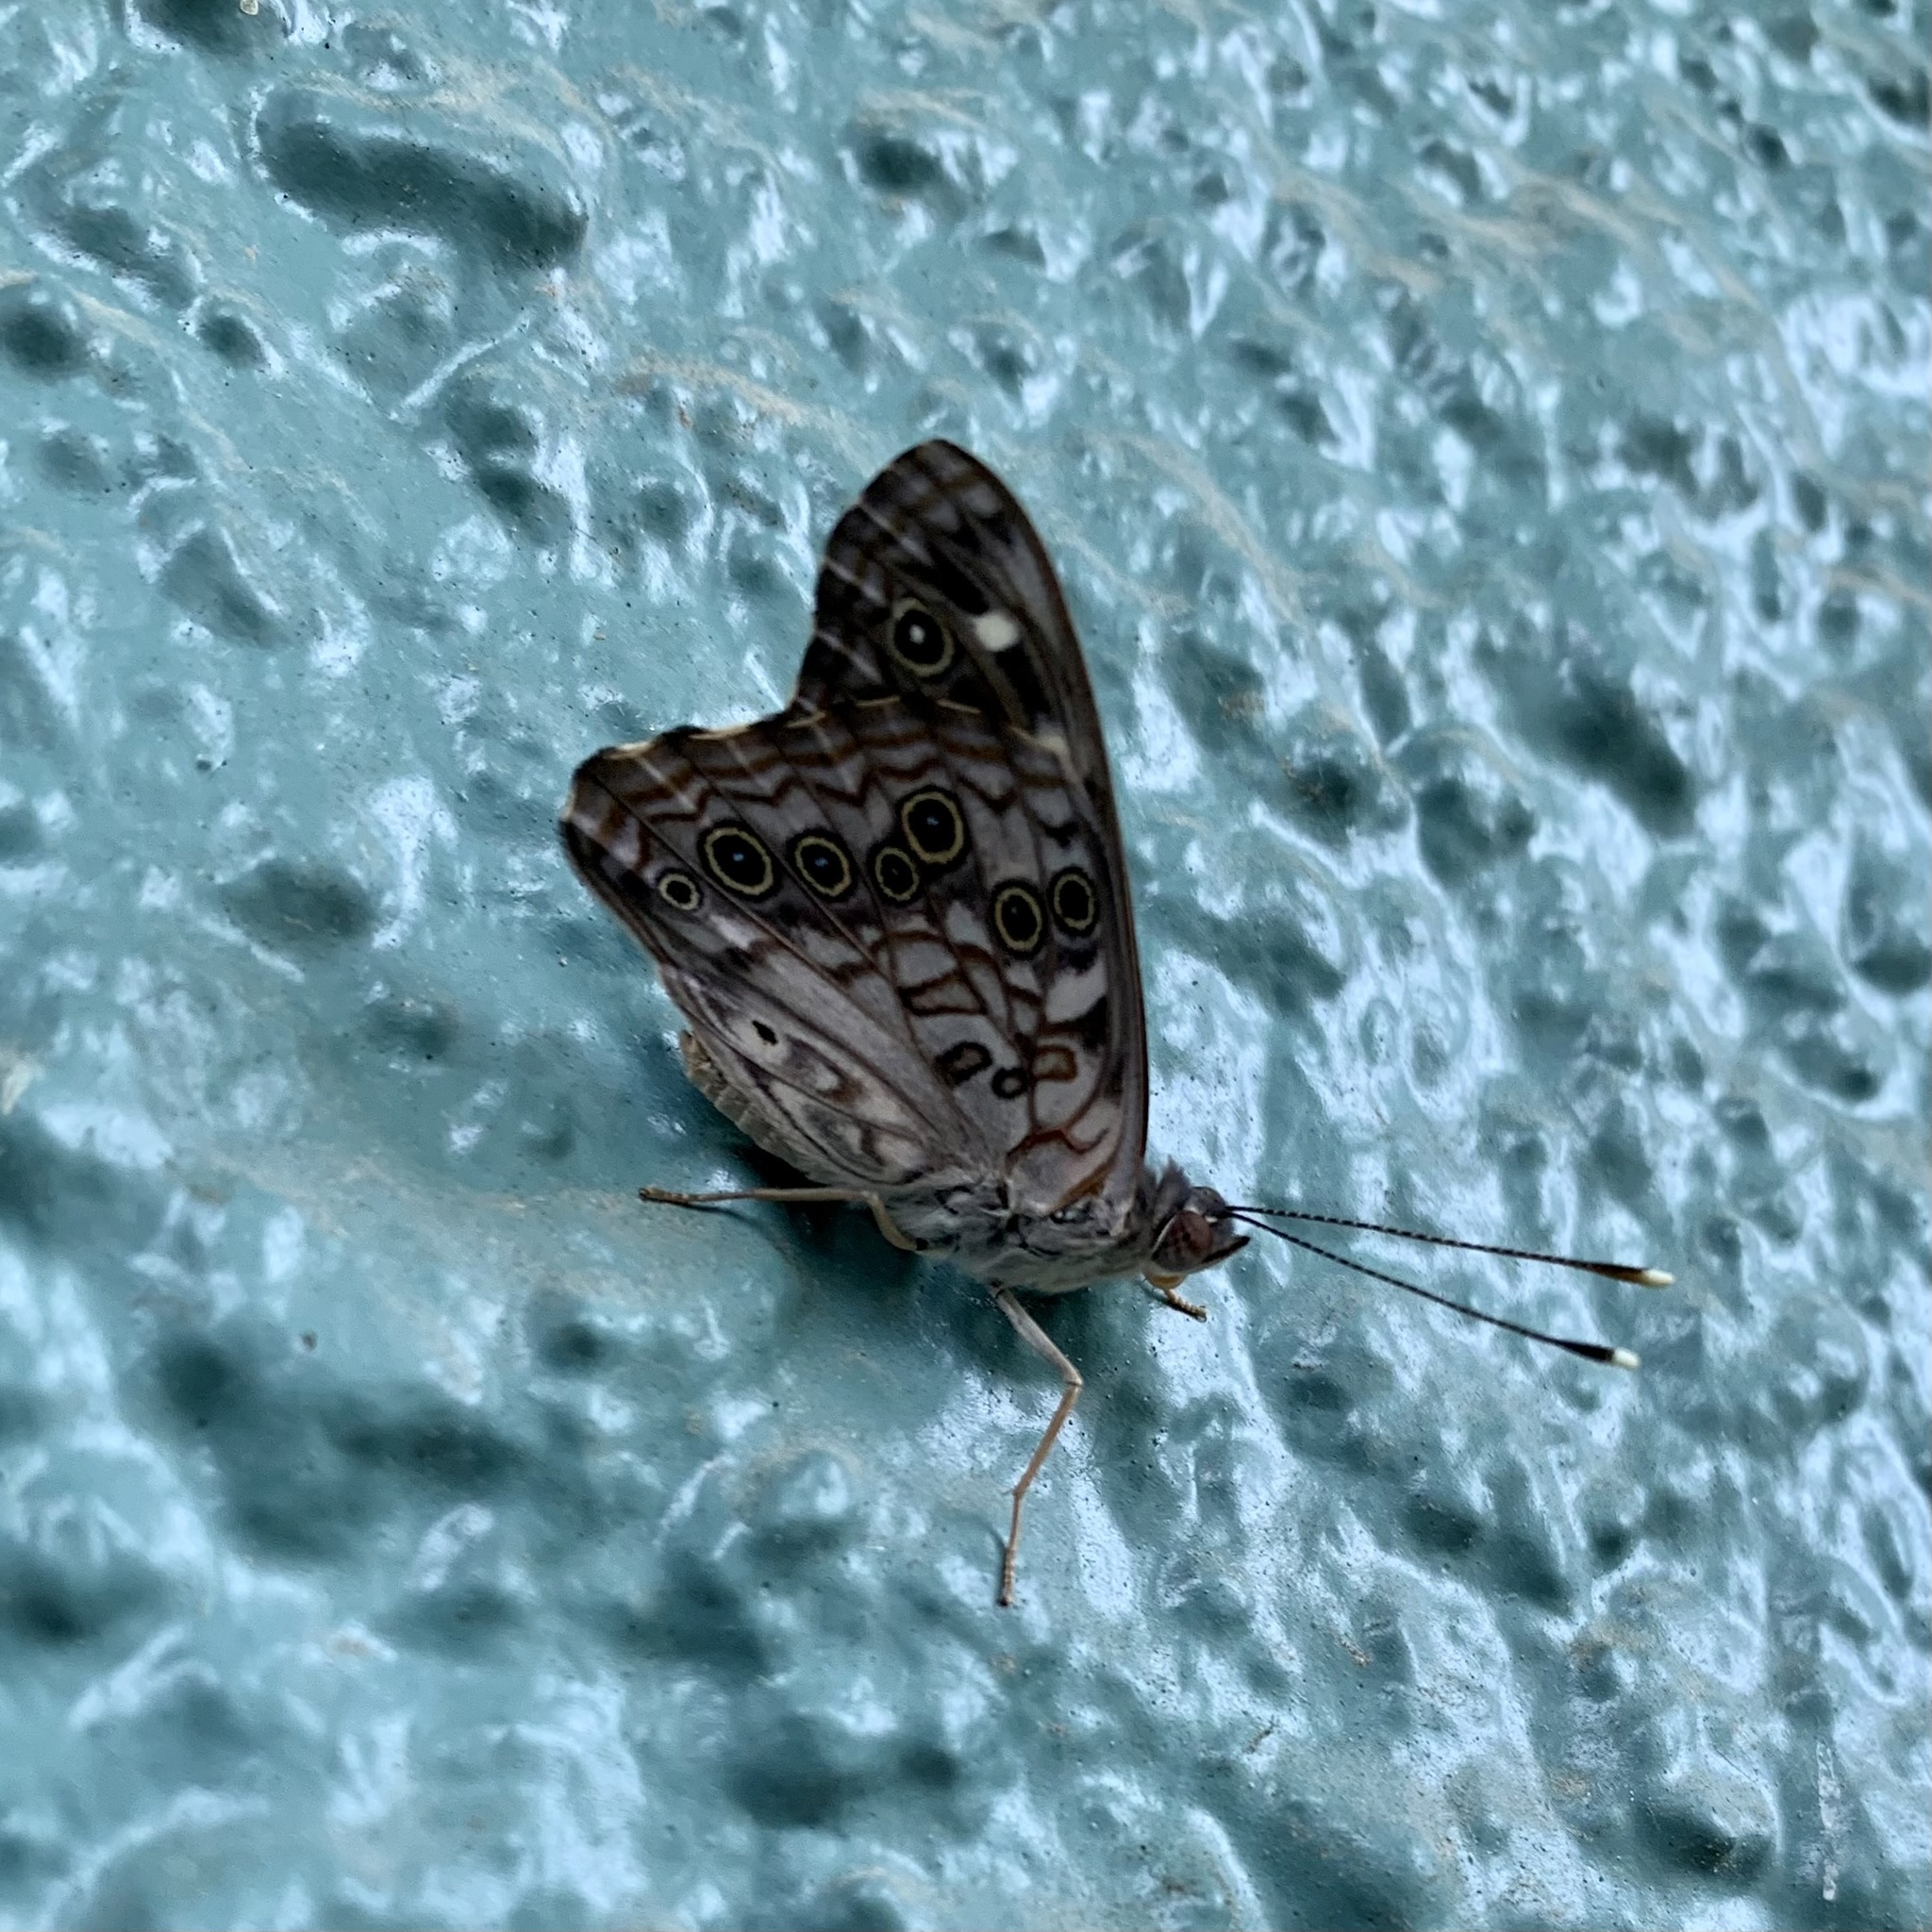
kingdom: Animalia
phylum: Arthropoda
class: Insecta
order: Lepidoptera
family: Nymphalidae
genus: Asterocampa
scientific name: Asterocampa celtis
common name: Hackberry emperor
